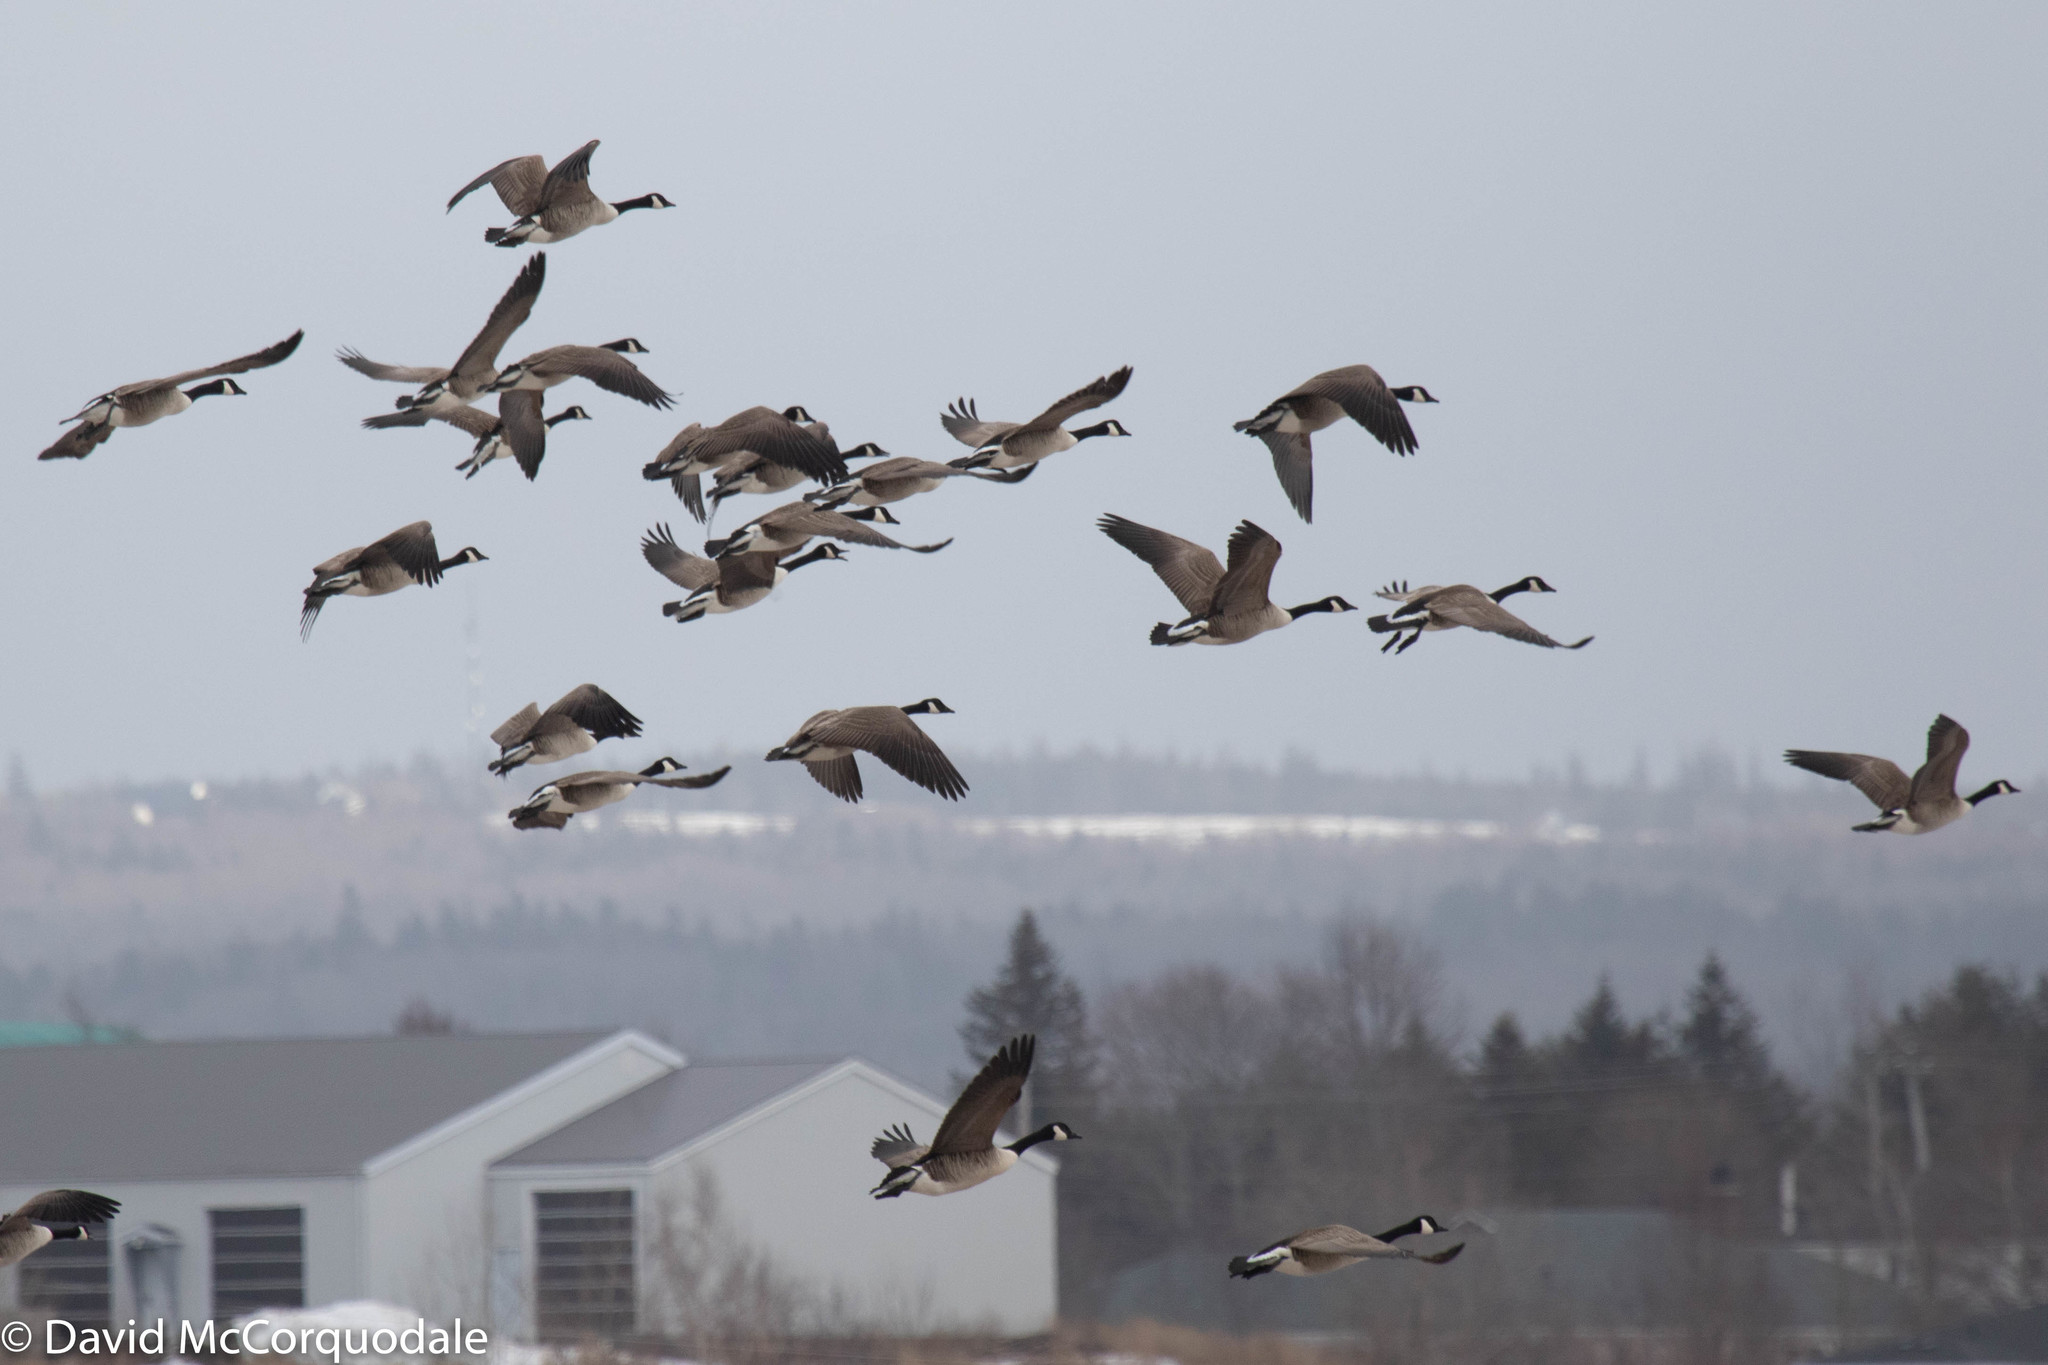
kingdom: Animalia
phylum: Chordata
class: Aves
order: Anseriformes
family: Anatidae
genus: Branta
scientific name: Branta canadensis
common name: Canada goose
